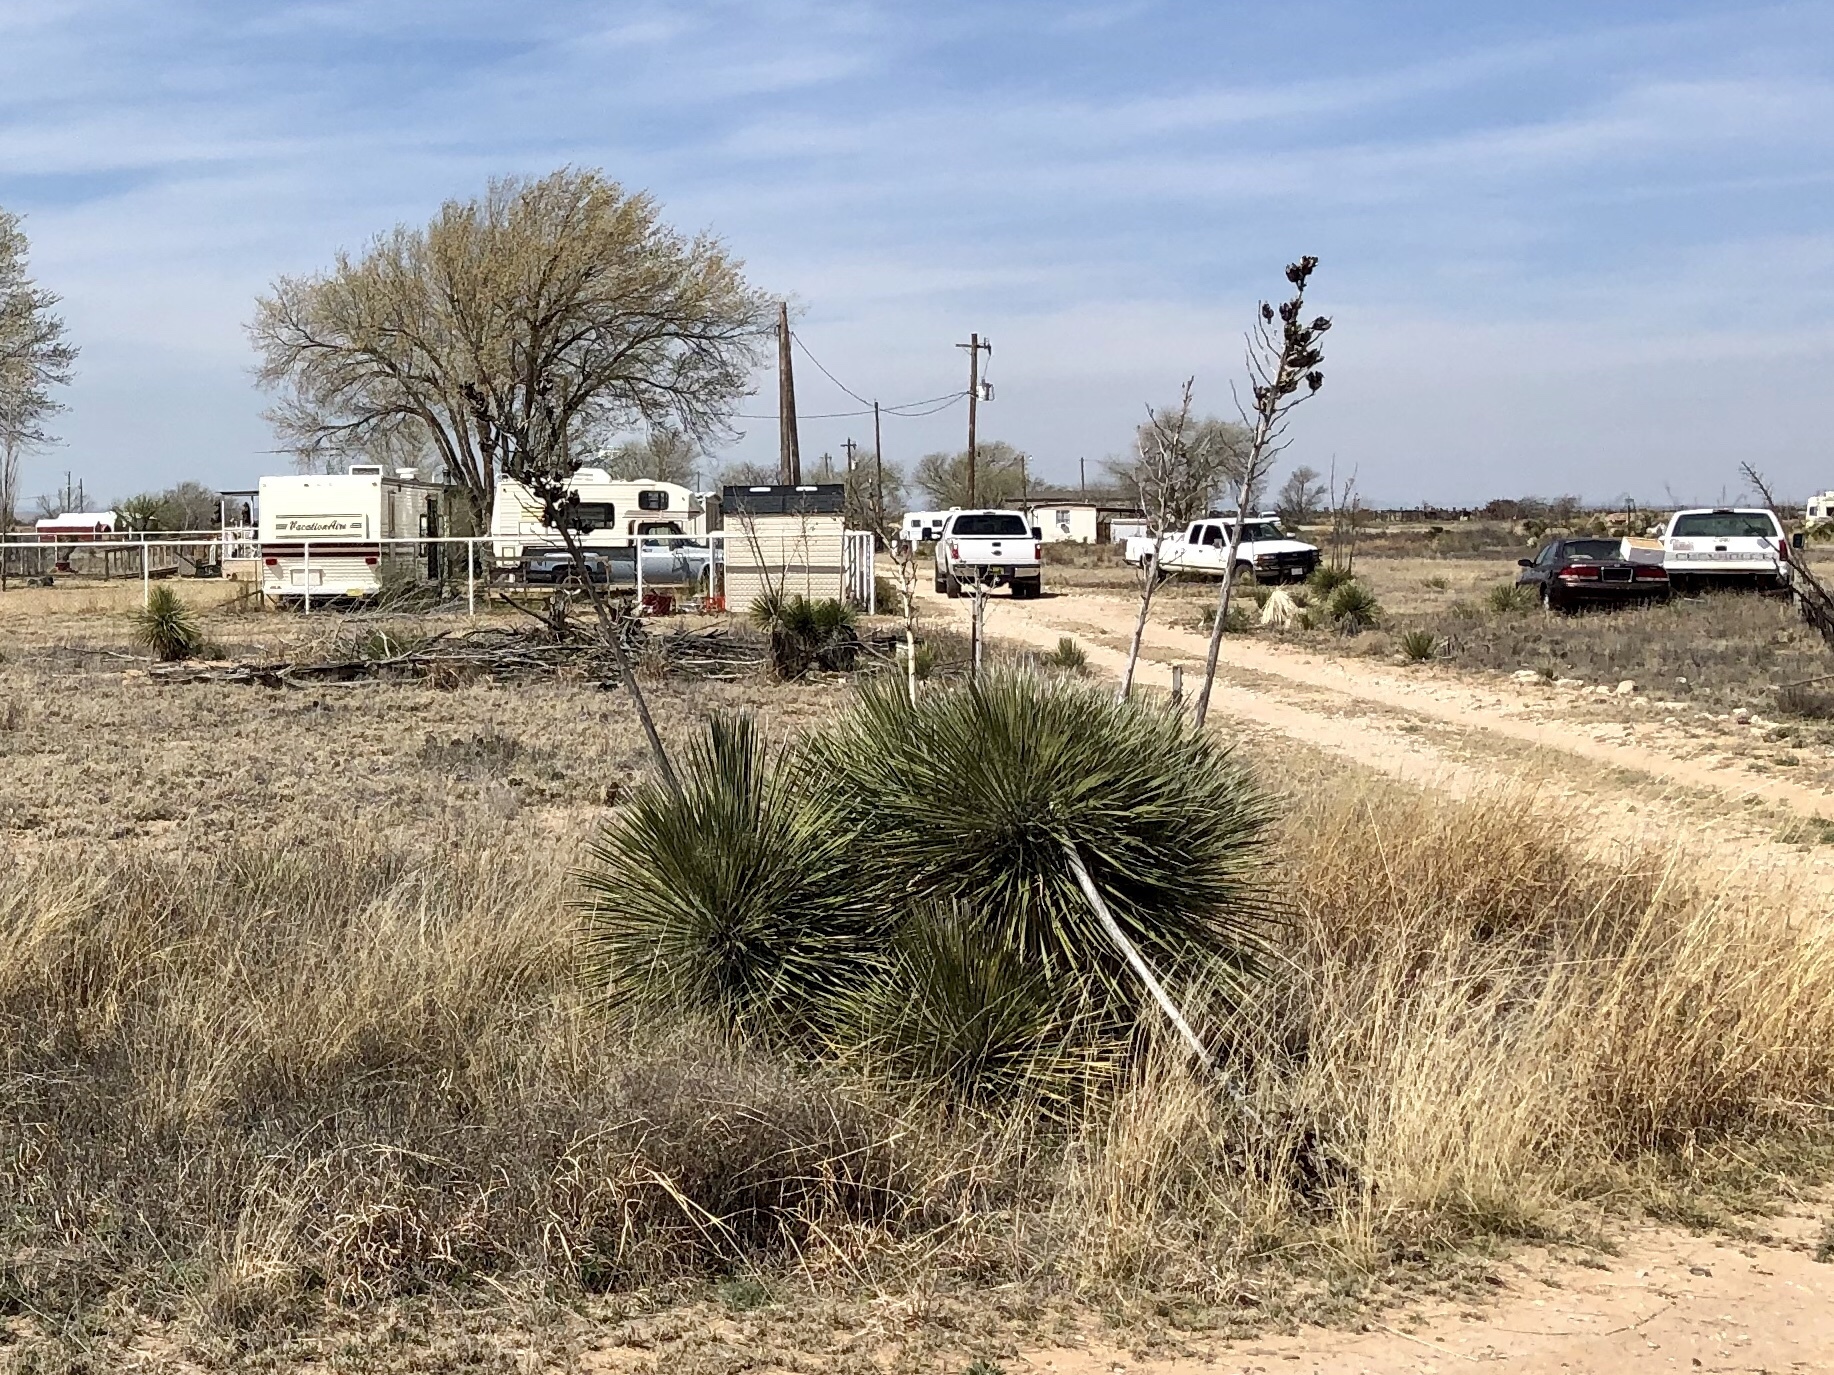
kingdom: Plantae
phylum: Tracheophyta
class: Liliopsida
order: Asparagales
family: Asparagaceae
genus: Yucca
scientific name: Yucca elata
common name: Palmella
